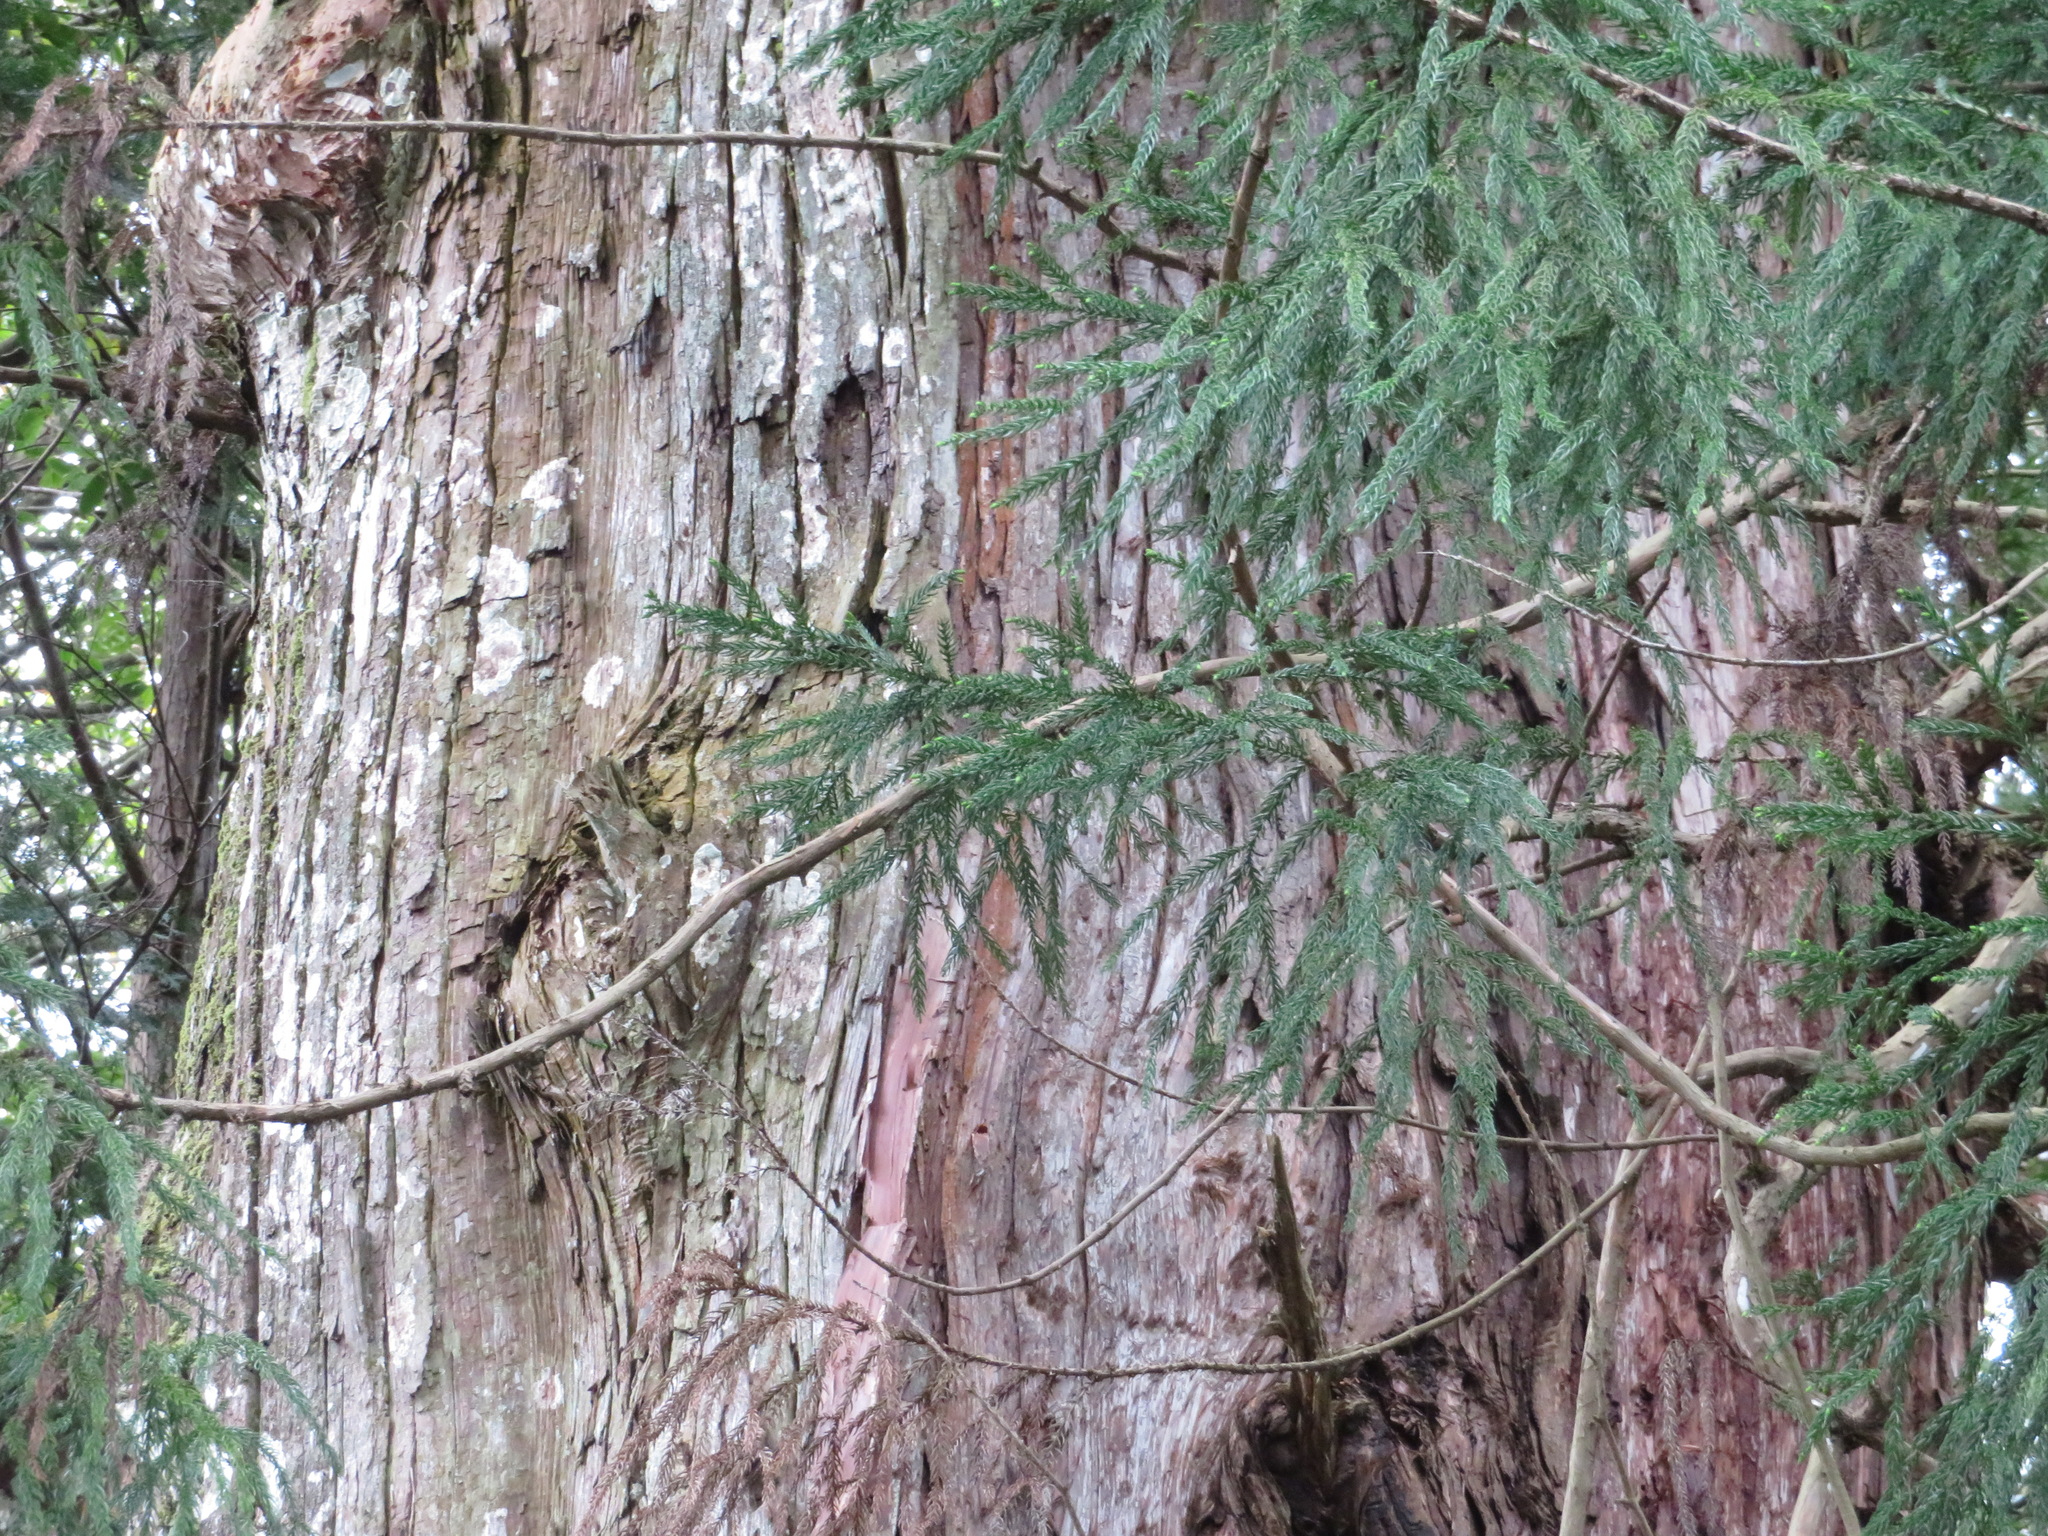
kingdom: Plantae
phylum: Tracheophyta
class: Pinopsida
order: Pinales
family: Cupressaceae
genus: Cryptomeria
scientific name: Cryptomeria japonica
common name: Japanese cedar
